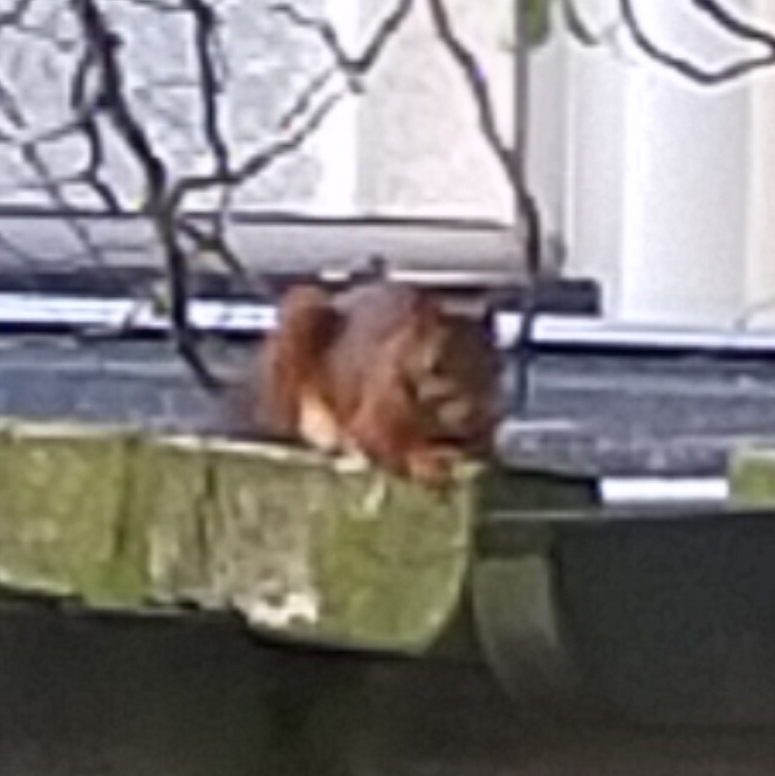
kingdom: Animalia
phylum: Chordata
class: Mammalia
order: Rodentia
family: Sciuridae
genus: Sciurus
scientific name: Sciurus vulgaris
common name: Eurasian red squirrel
